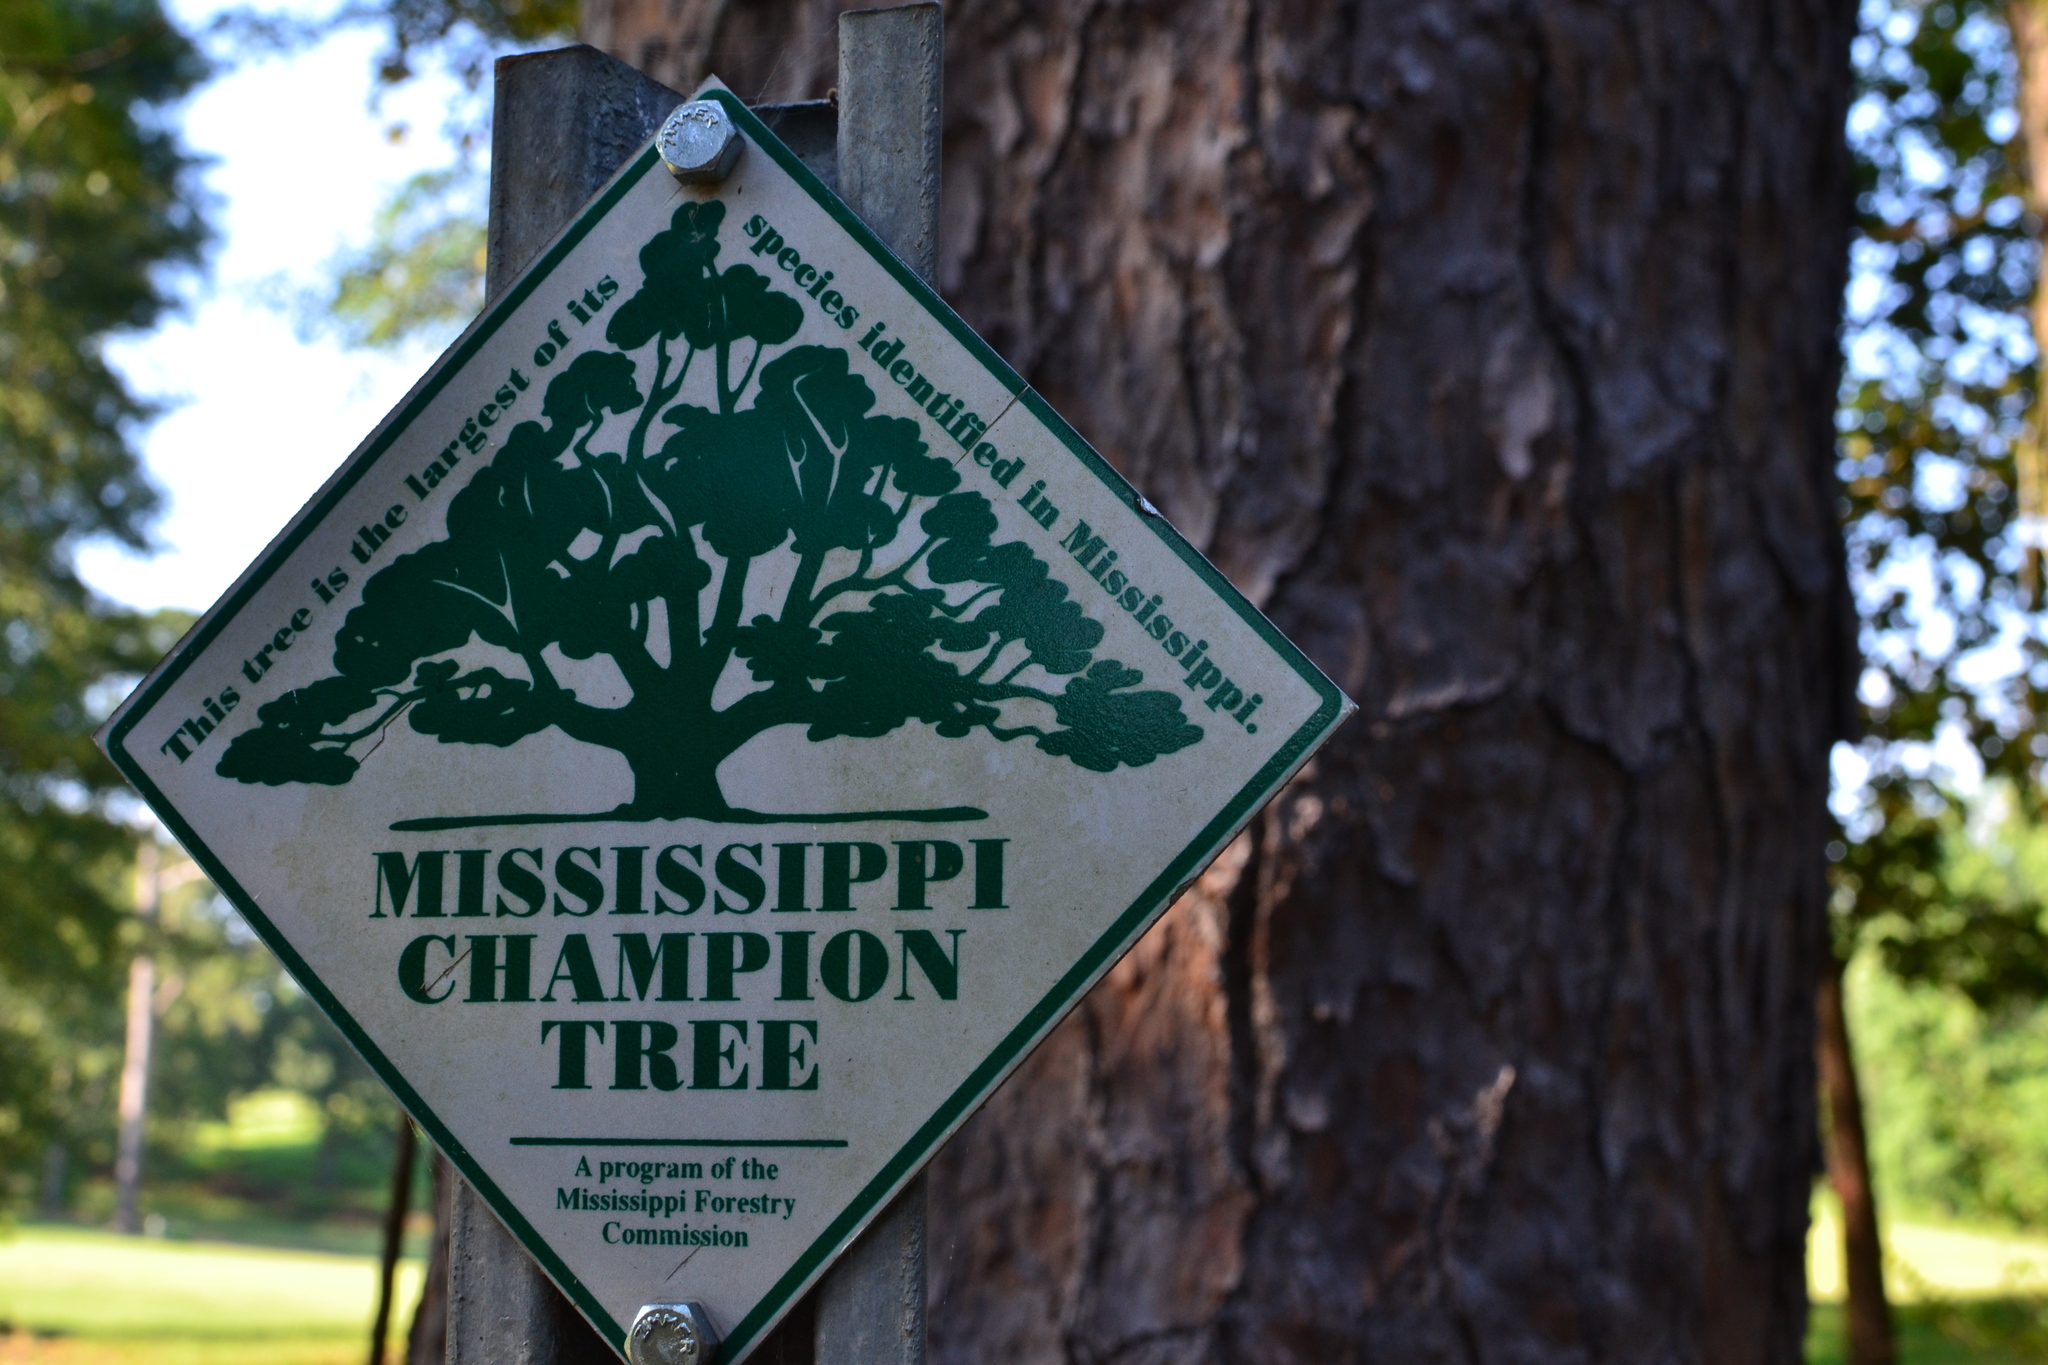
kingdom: Plantae
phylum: Tracheophyta
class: Pinopsida
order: Pinales
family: Pinaceae
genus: Pinus
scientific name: Pinus palustris
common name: Longleaf pine
